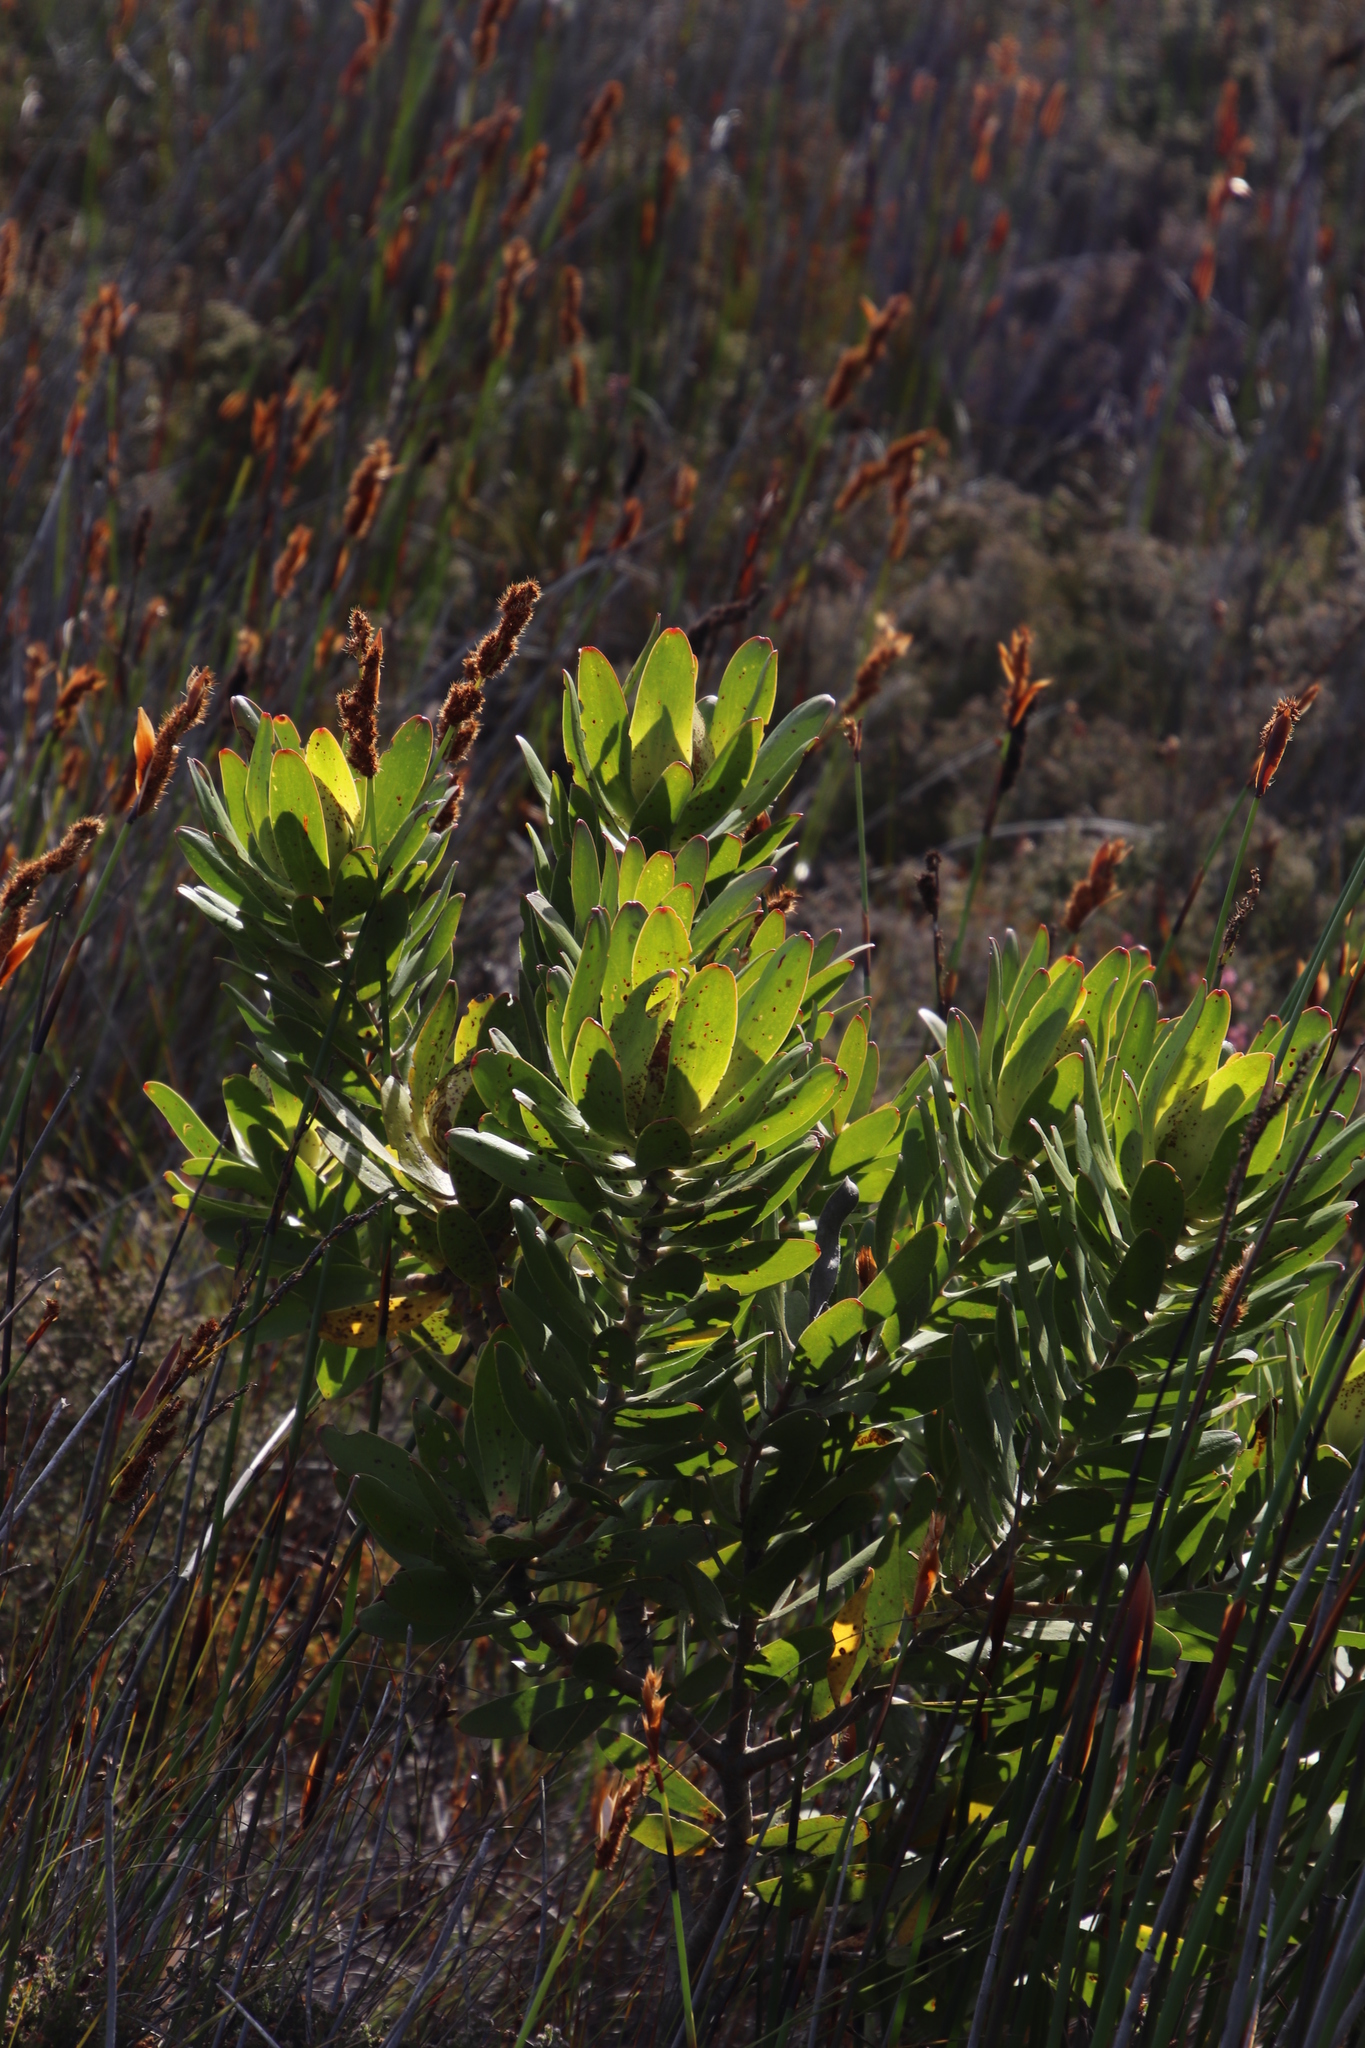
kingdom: Plantae
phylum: Tracheophyta
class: Magnoliopsida
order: Proteales
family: Proteaceae
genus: Leucadendron
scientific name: Leucadendron laureolum
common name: Golden sunshinebush
